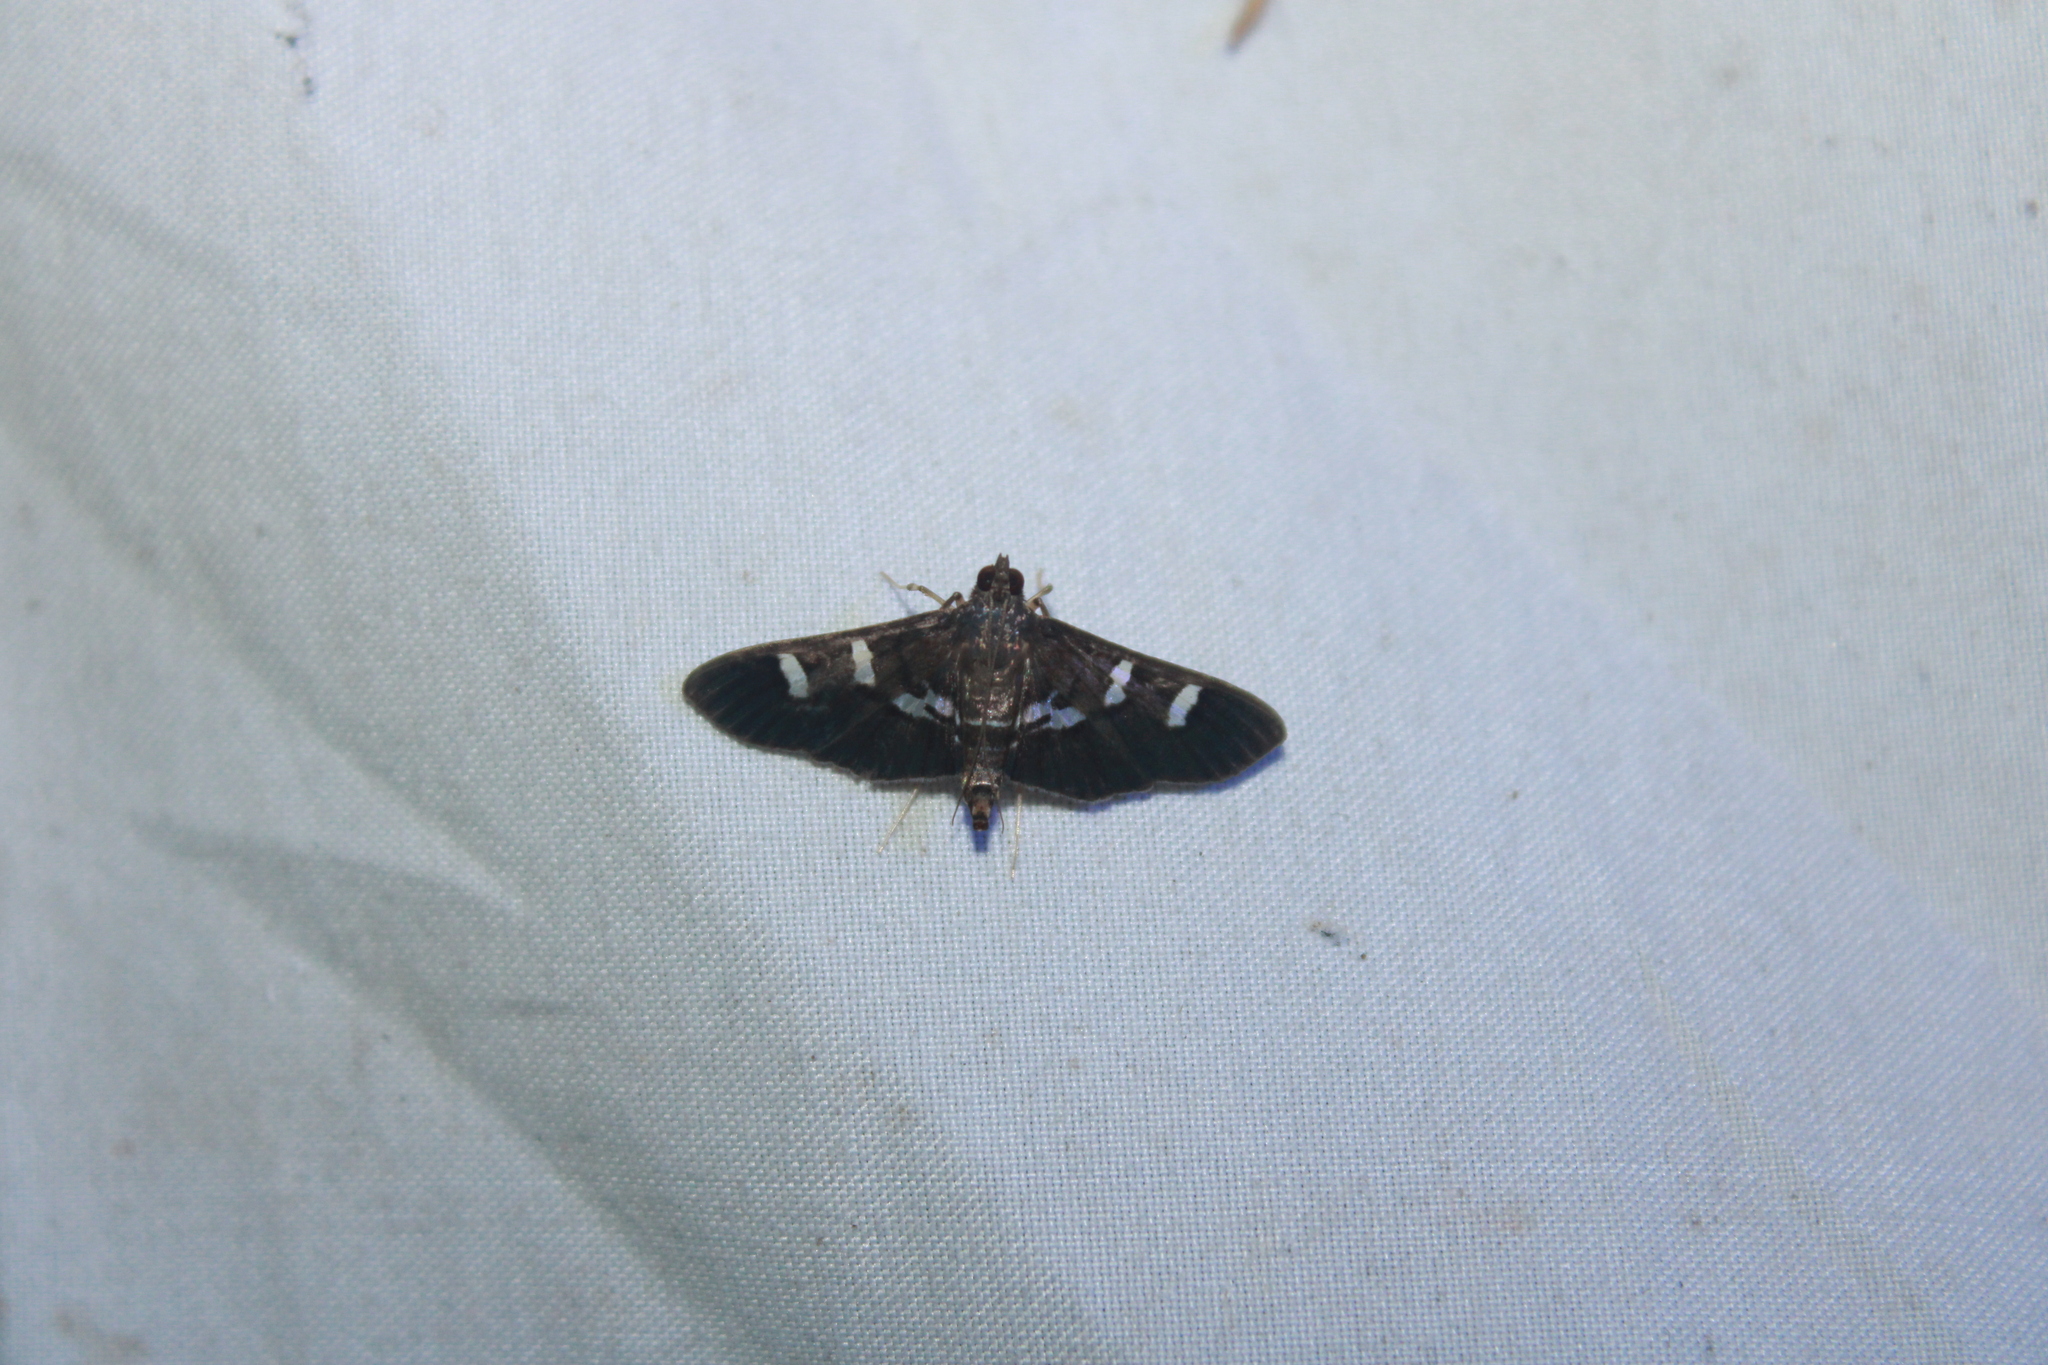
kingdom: Animalia
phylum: Arthropoda
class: Insecta
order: Lepidoptera
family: Crambidae
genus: Desmia
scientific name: Desmia deploralis
